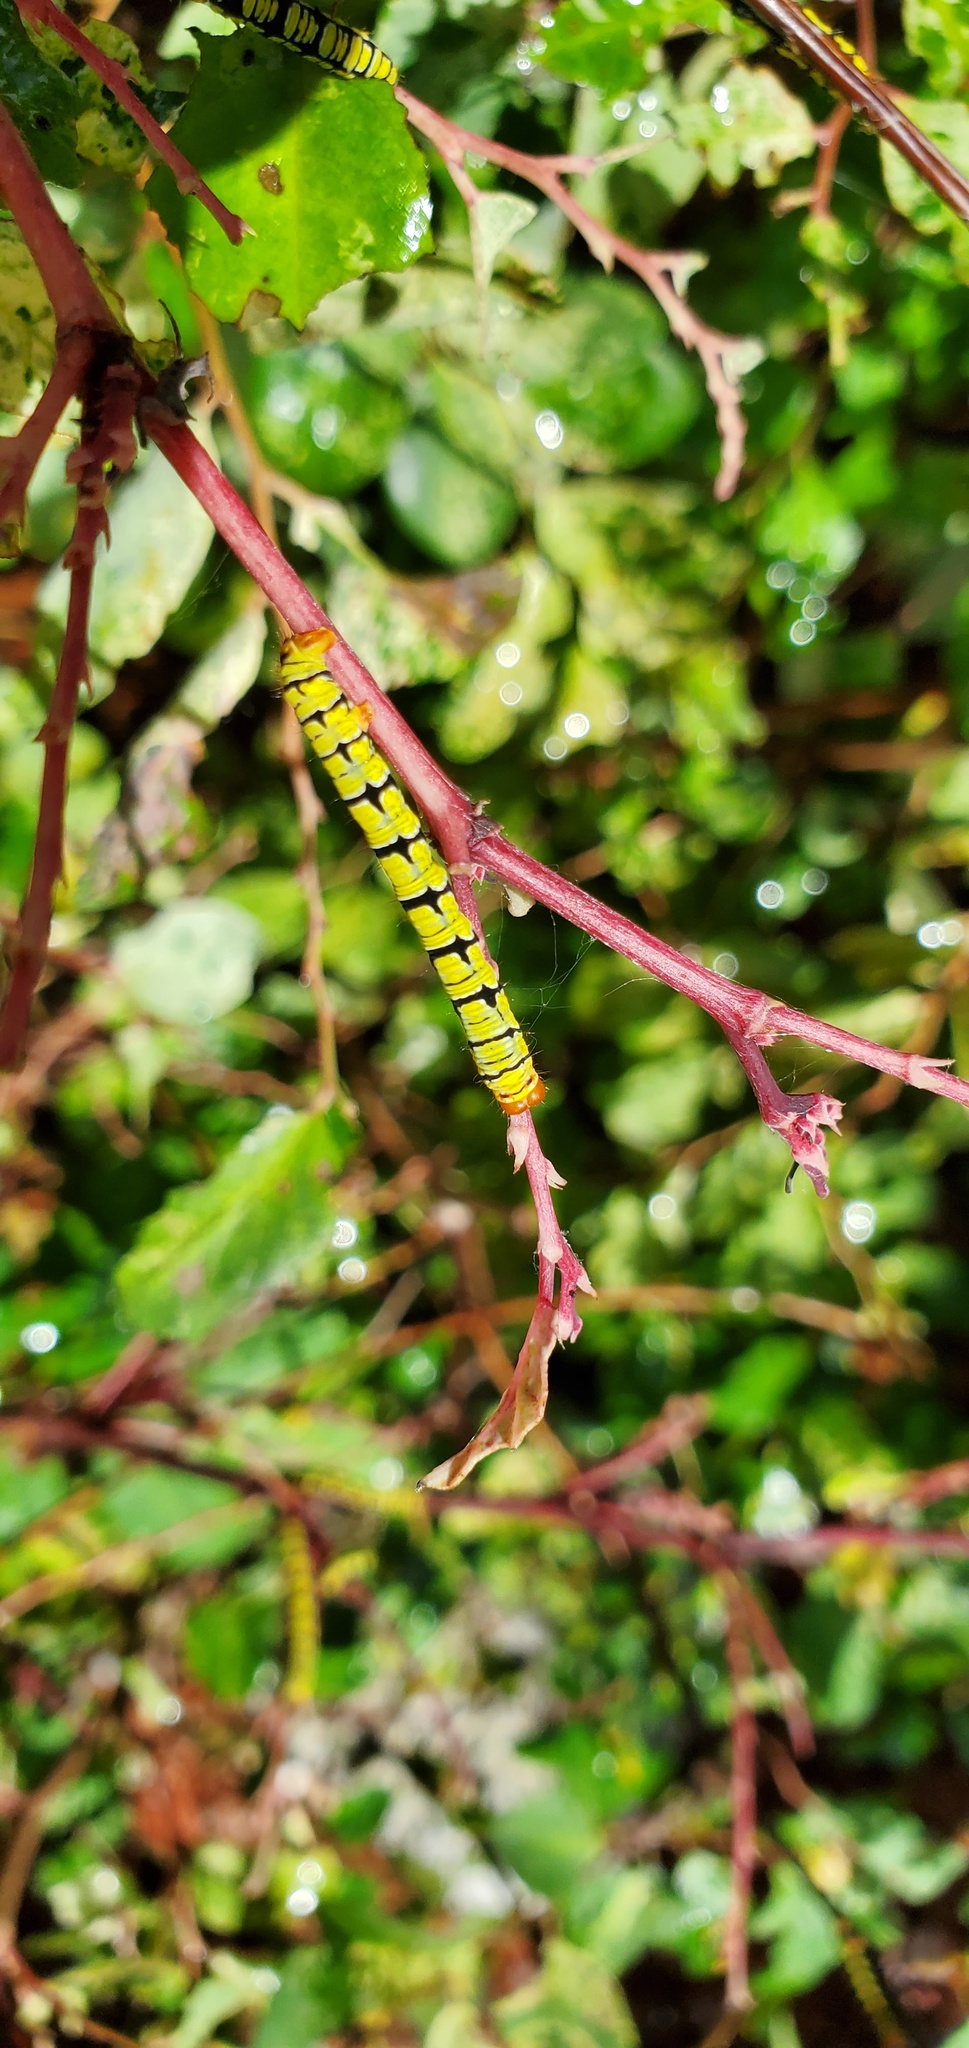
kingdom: Animalia
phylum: Arthropoda
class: Insecta
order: Lepidoptera
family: Geometridae
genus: Melanchroia
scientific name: Melanchroia chephise
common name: White-tipped black
